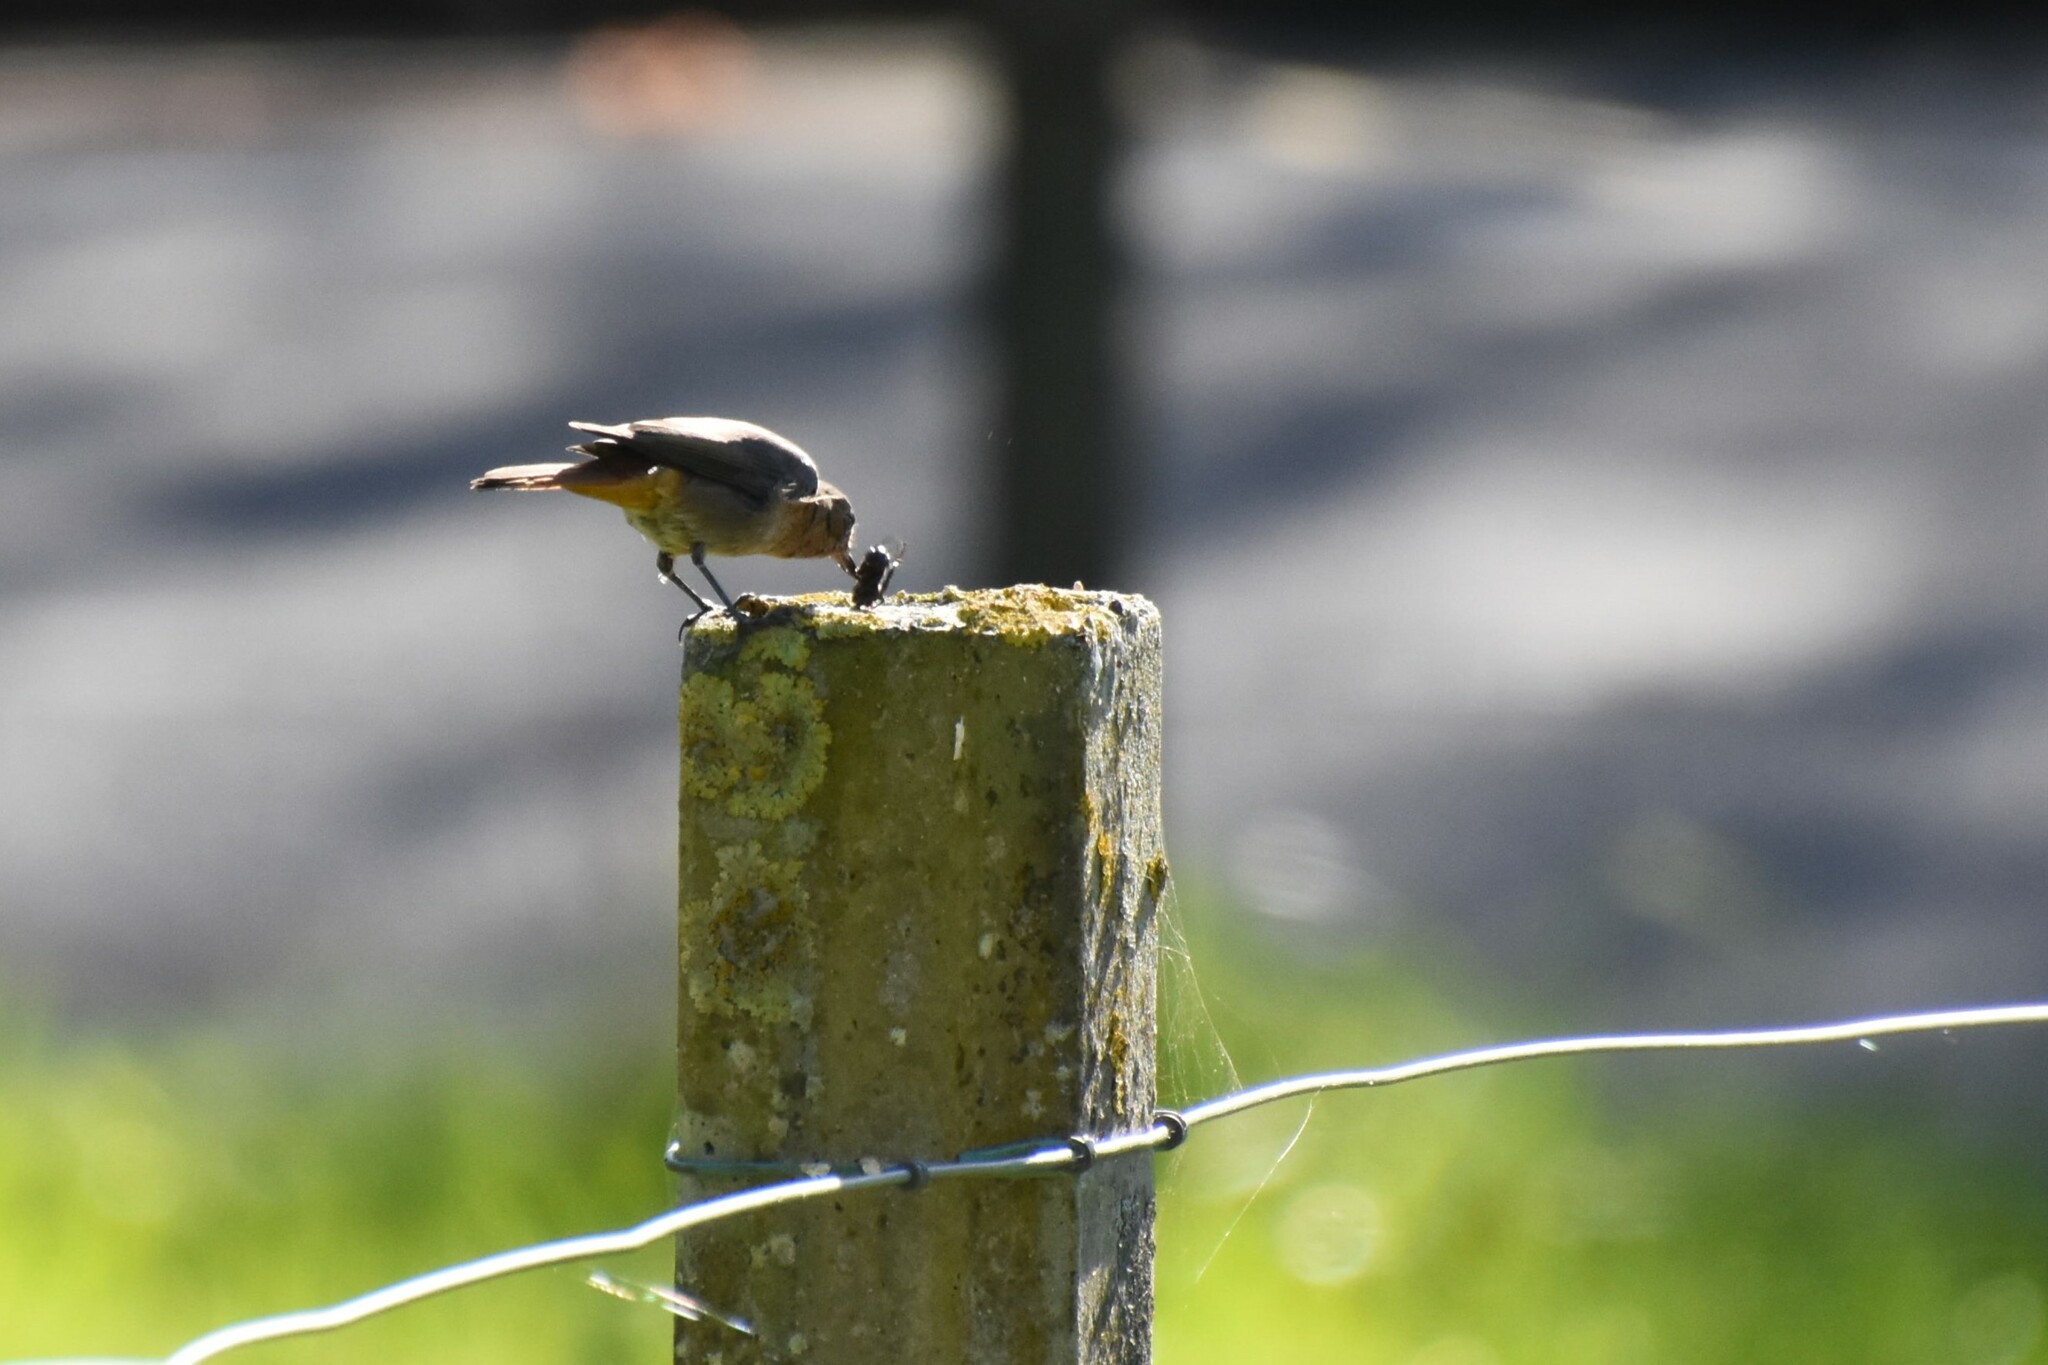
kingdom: Animalia
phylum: Chordata
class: Aves
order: Passeriformes
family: Muscicapidae
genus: Phoenicurus
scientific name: Phoenicurus ochruros
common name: Black redstart
